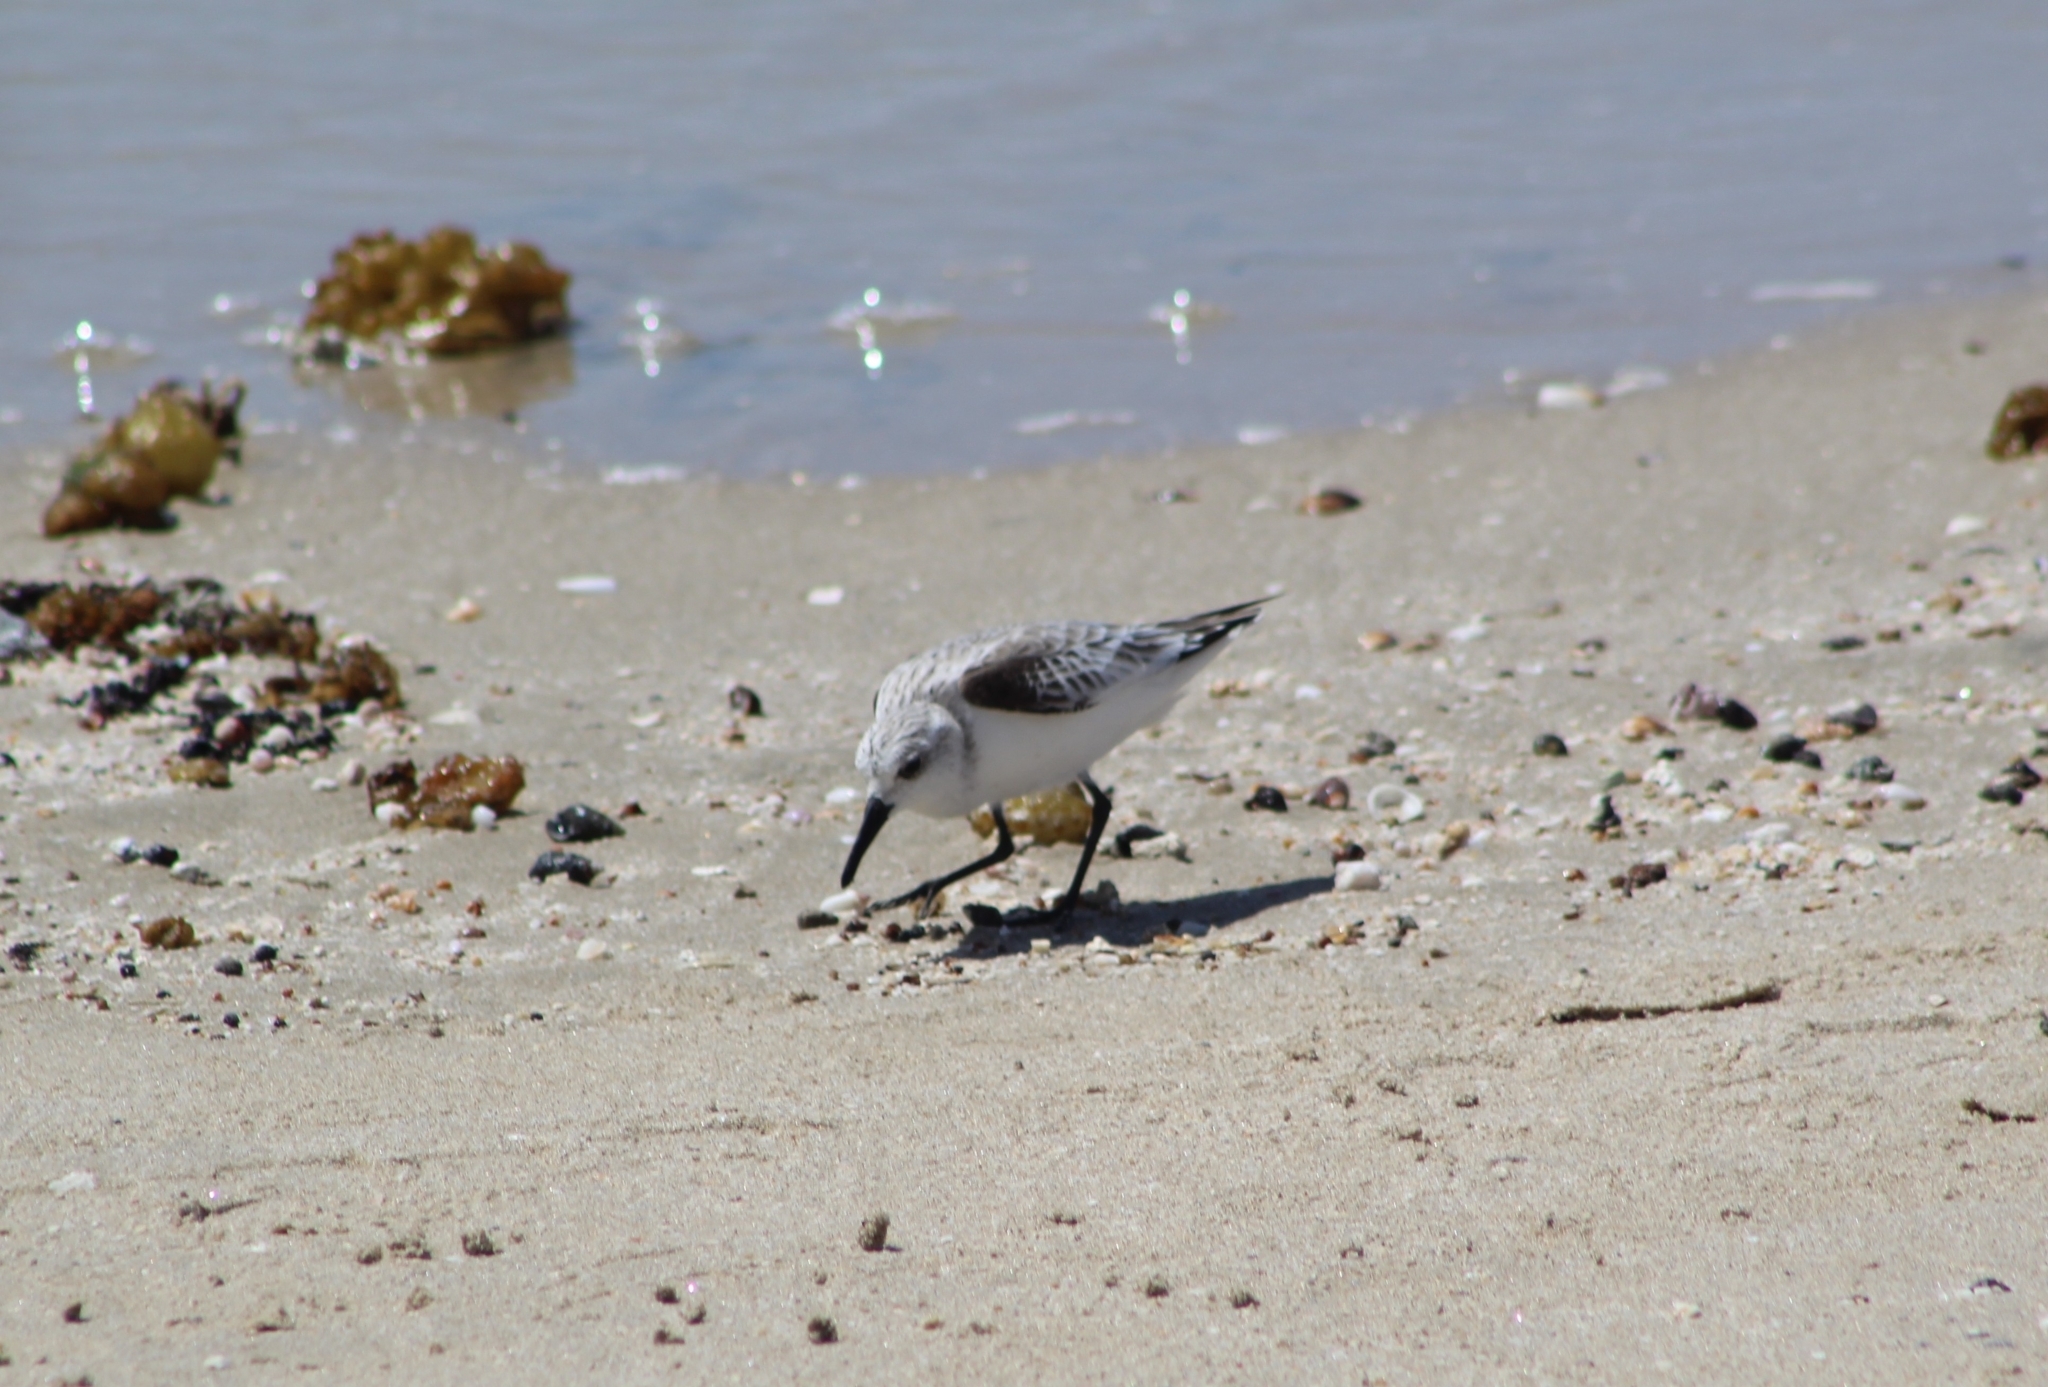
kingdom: Animalia
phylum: Chordata
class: Aves
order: Charadriiformes
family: Scolopacidae
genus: Calidris
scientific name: Calidris alba
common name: Sanderling
